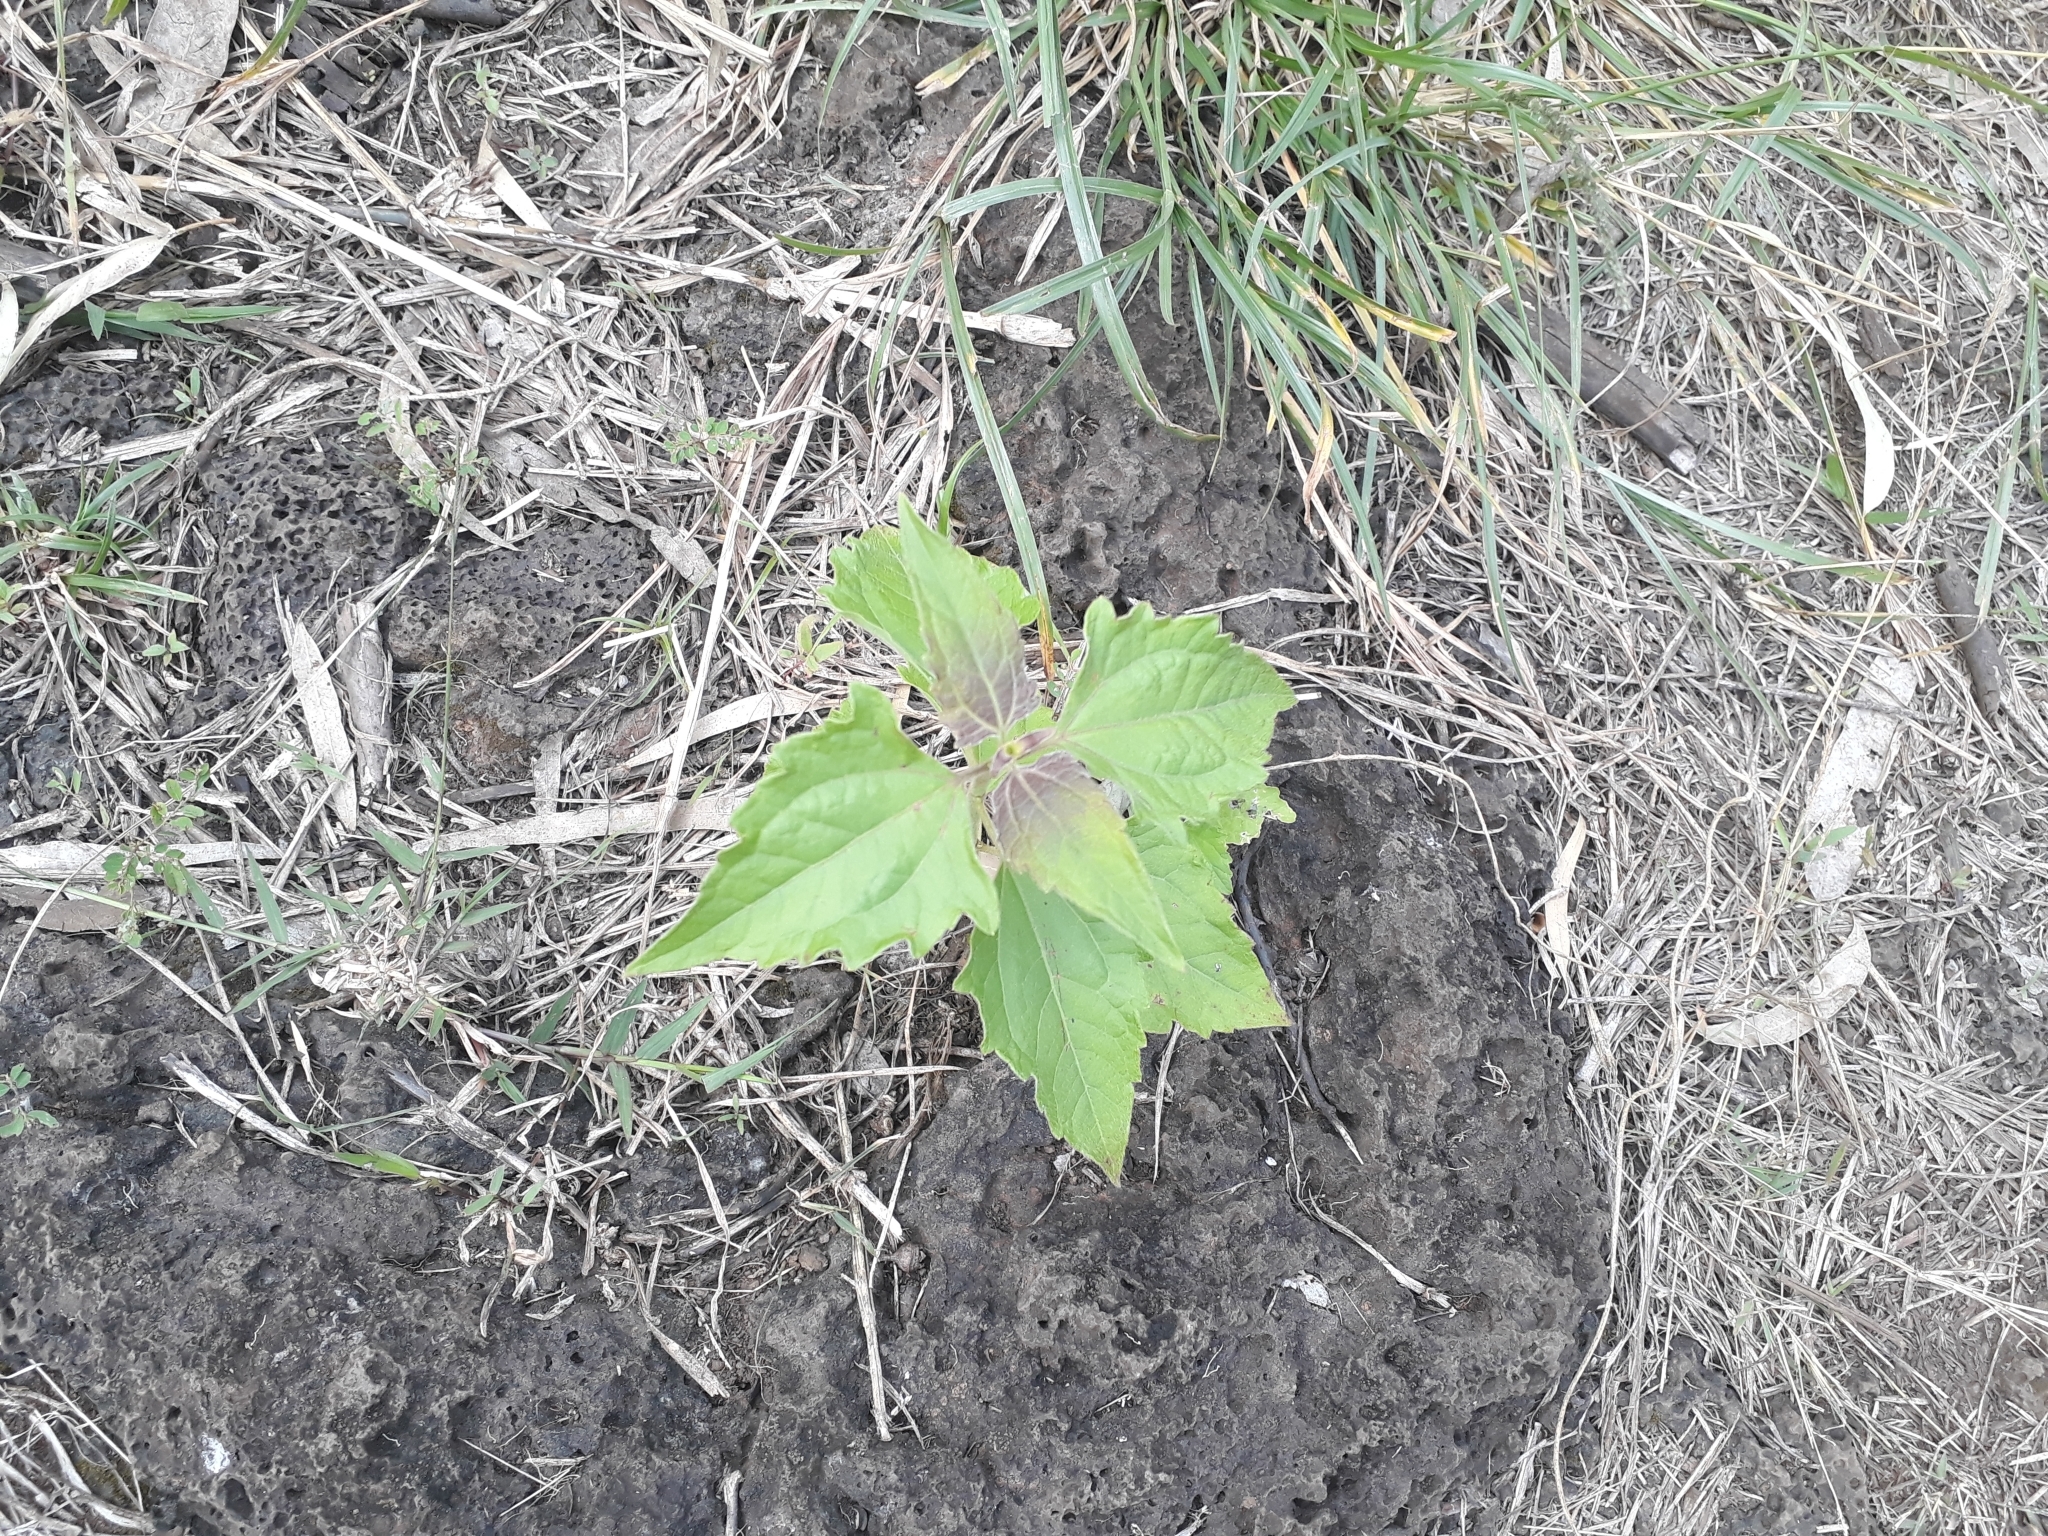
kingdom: Plantae
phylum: Tracheophyta
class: Magnoliopsida
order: Asterales
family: Asteraceae
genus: Chromolaena
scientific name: Chromolaena odorata
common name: Siamweed
